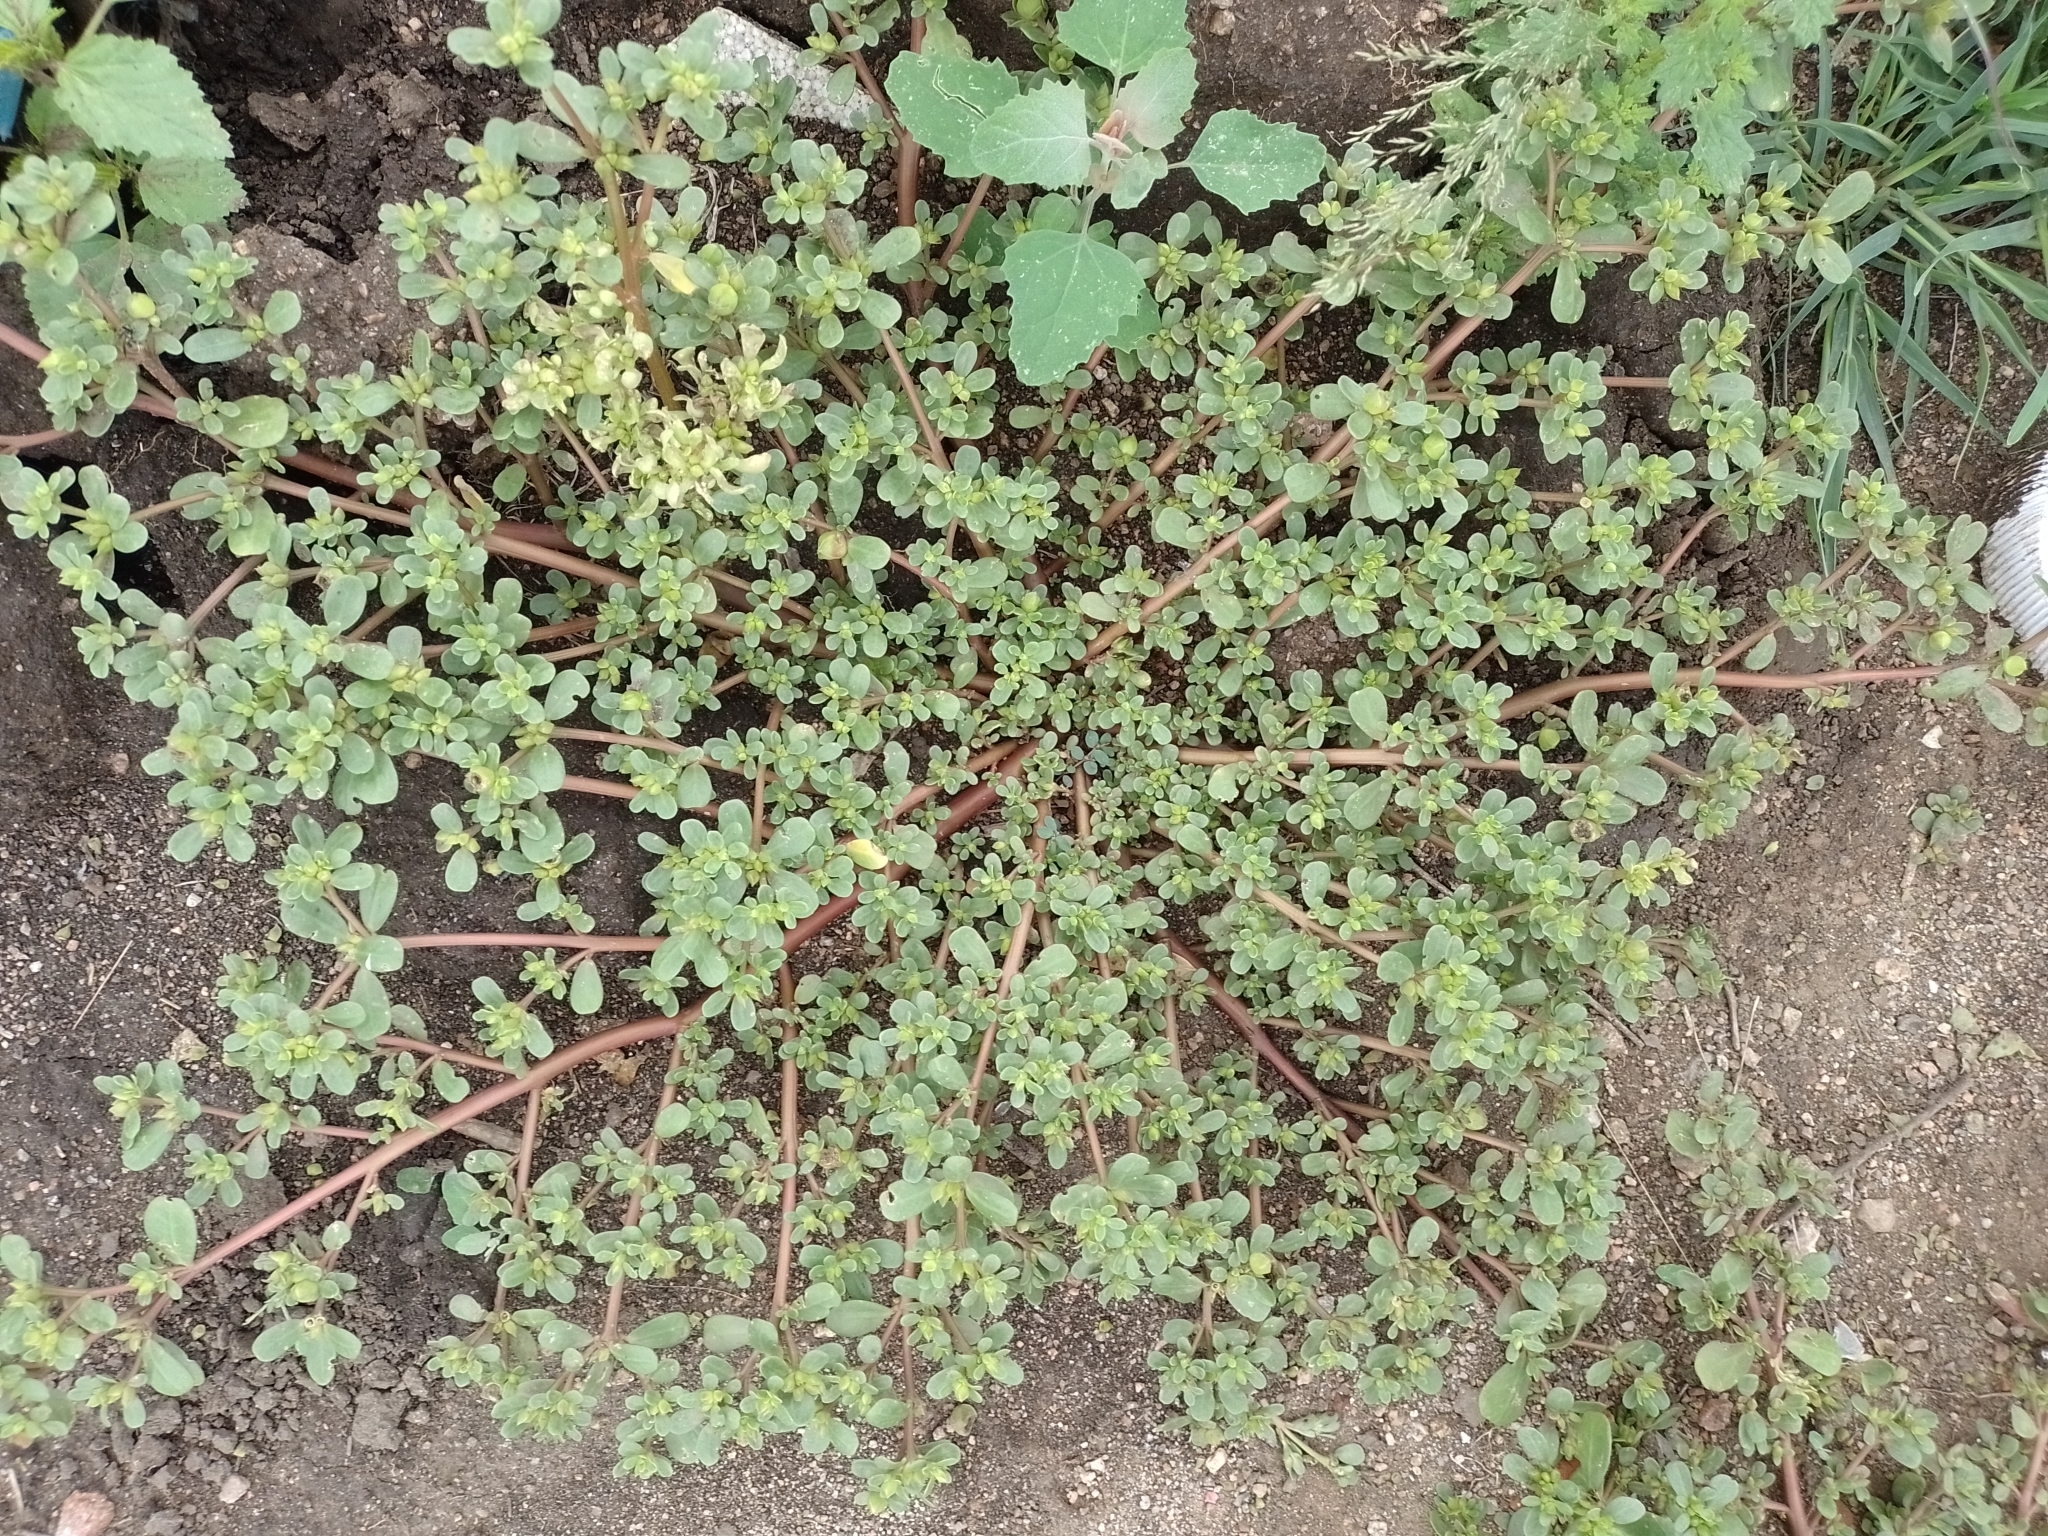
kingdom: Plantae
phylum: Tracheophyta
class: Magnoliopsida
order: Caryophyllales
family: Portulacaceae
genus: Portulaca
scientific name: Portulaca oleracea
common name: Common purslane
